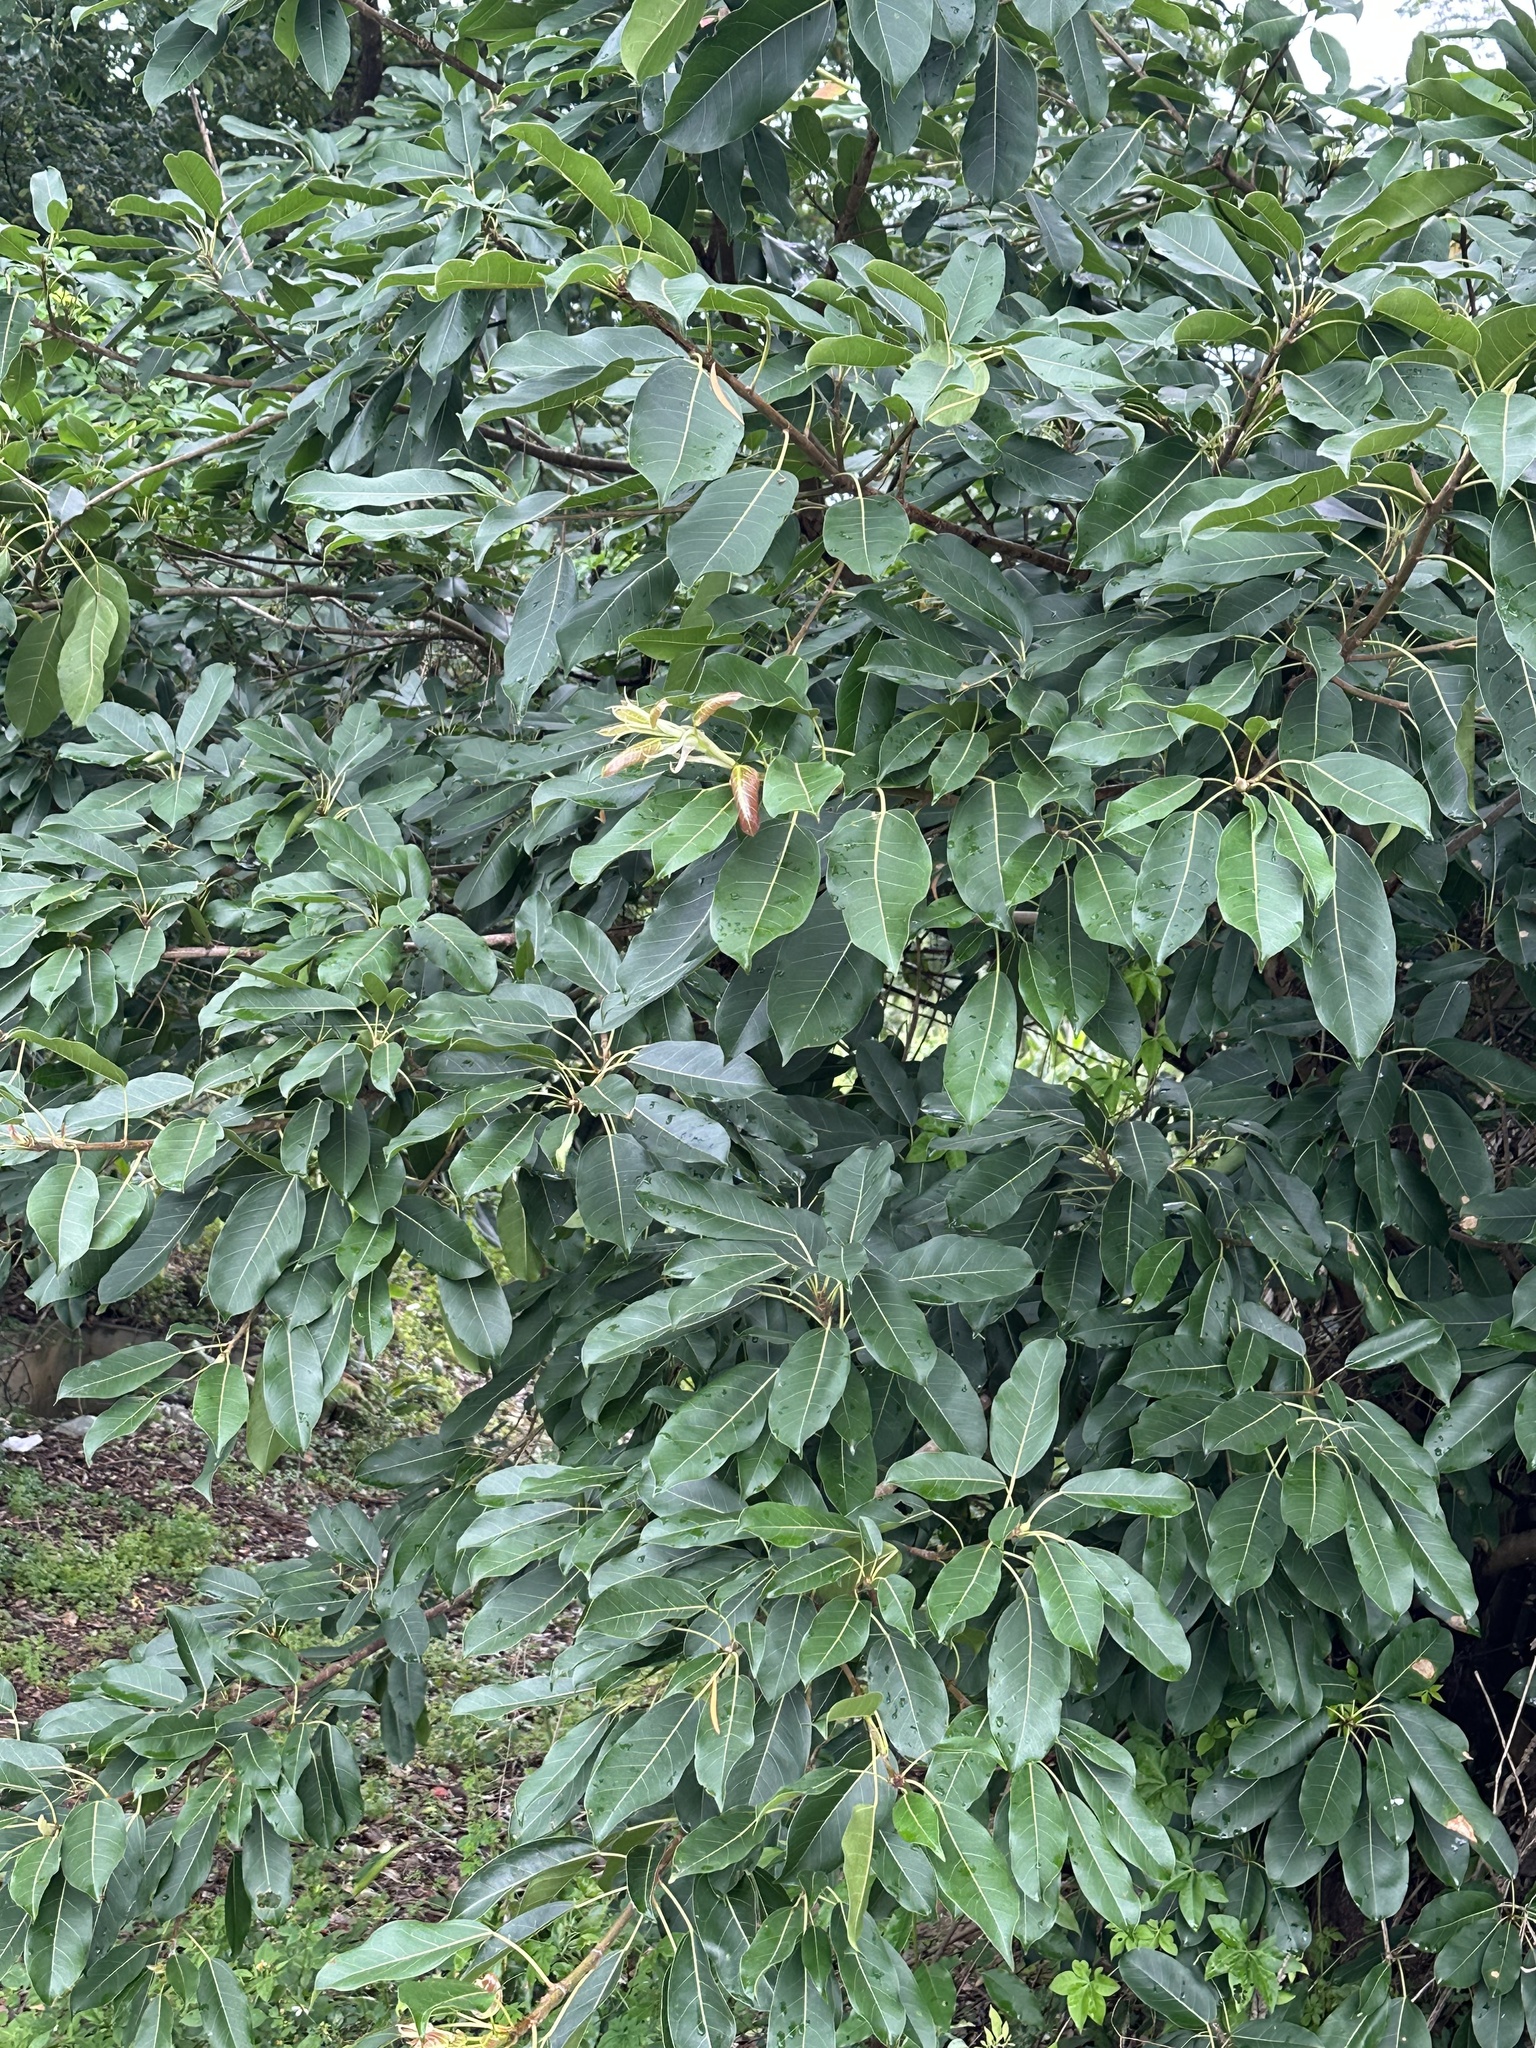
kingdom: Plantae
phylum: Tracheophyta
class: Magnoliopsida
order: Rosales
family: Moraceae
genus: Ficus
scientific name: Ficus subpisocarpa
